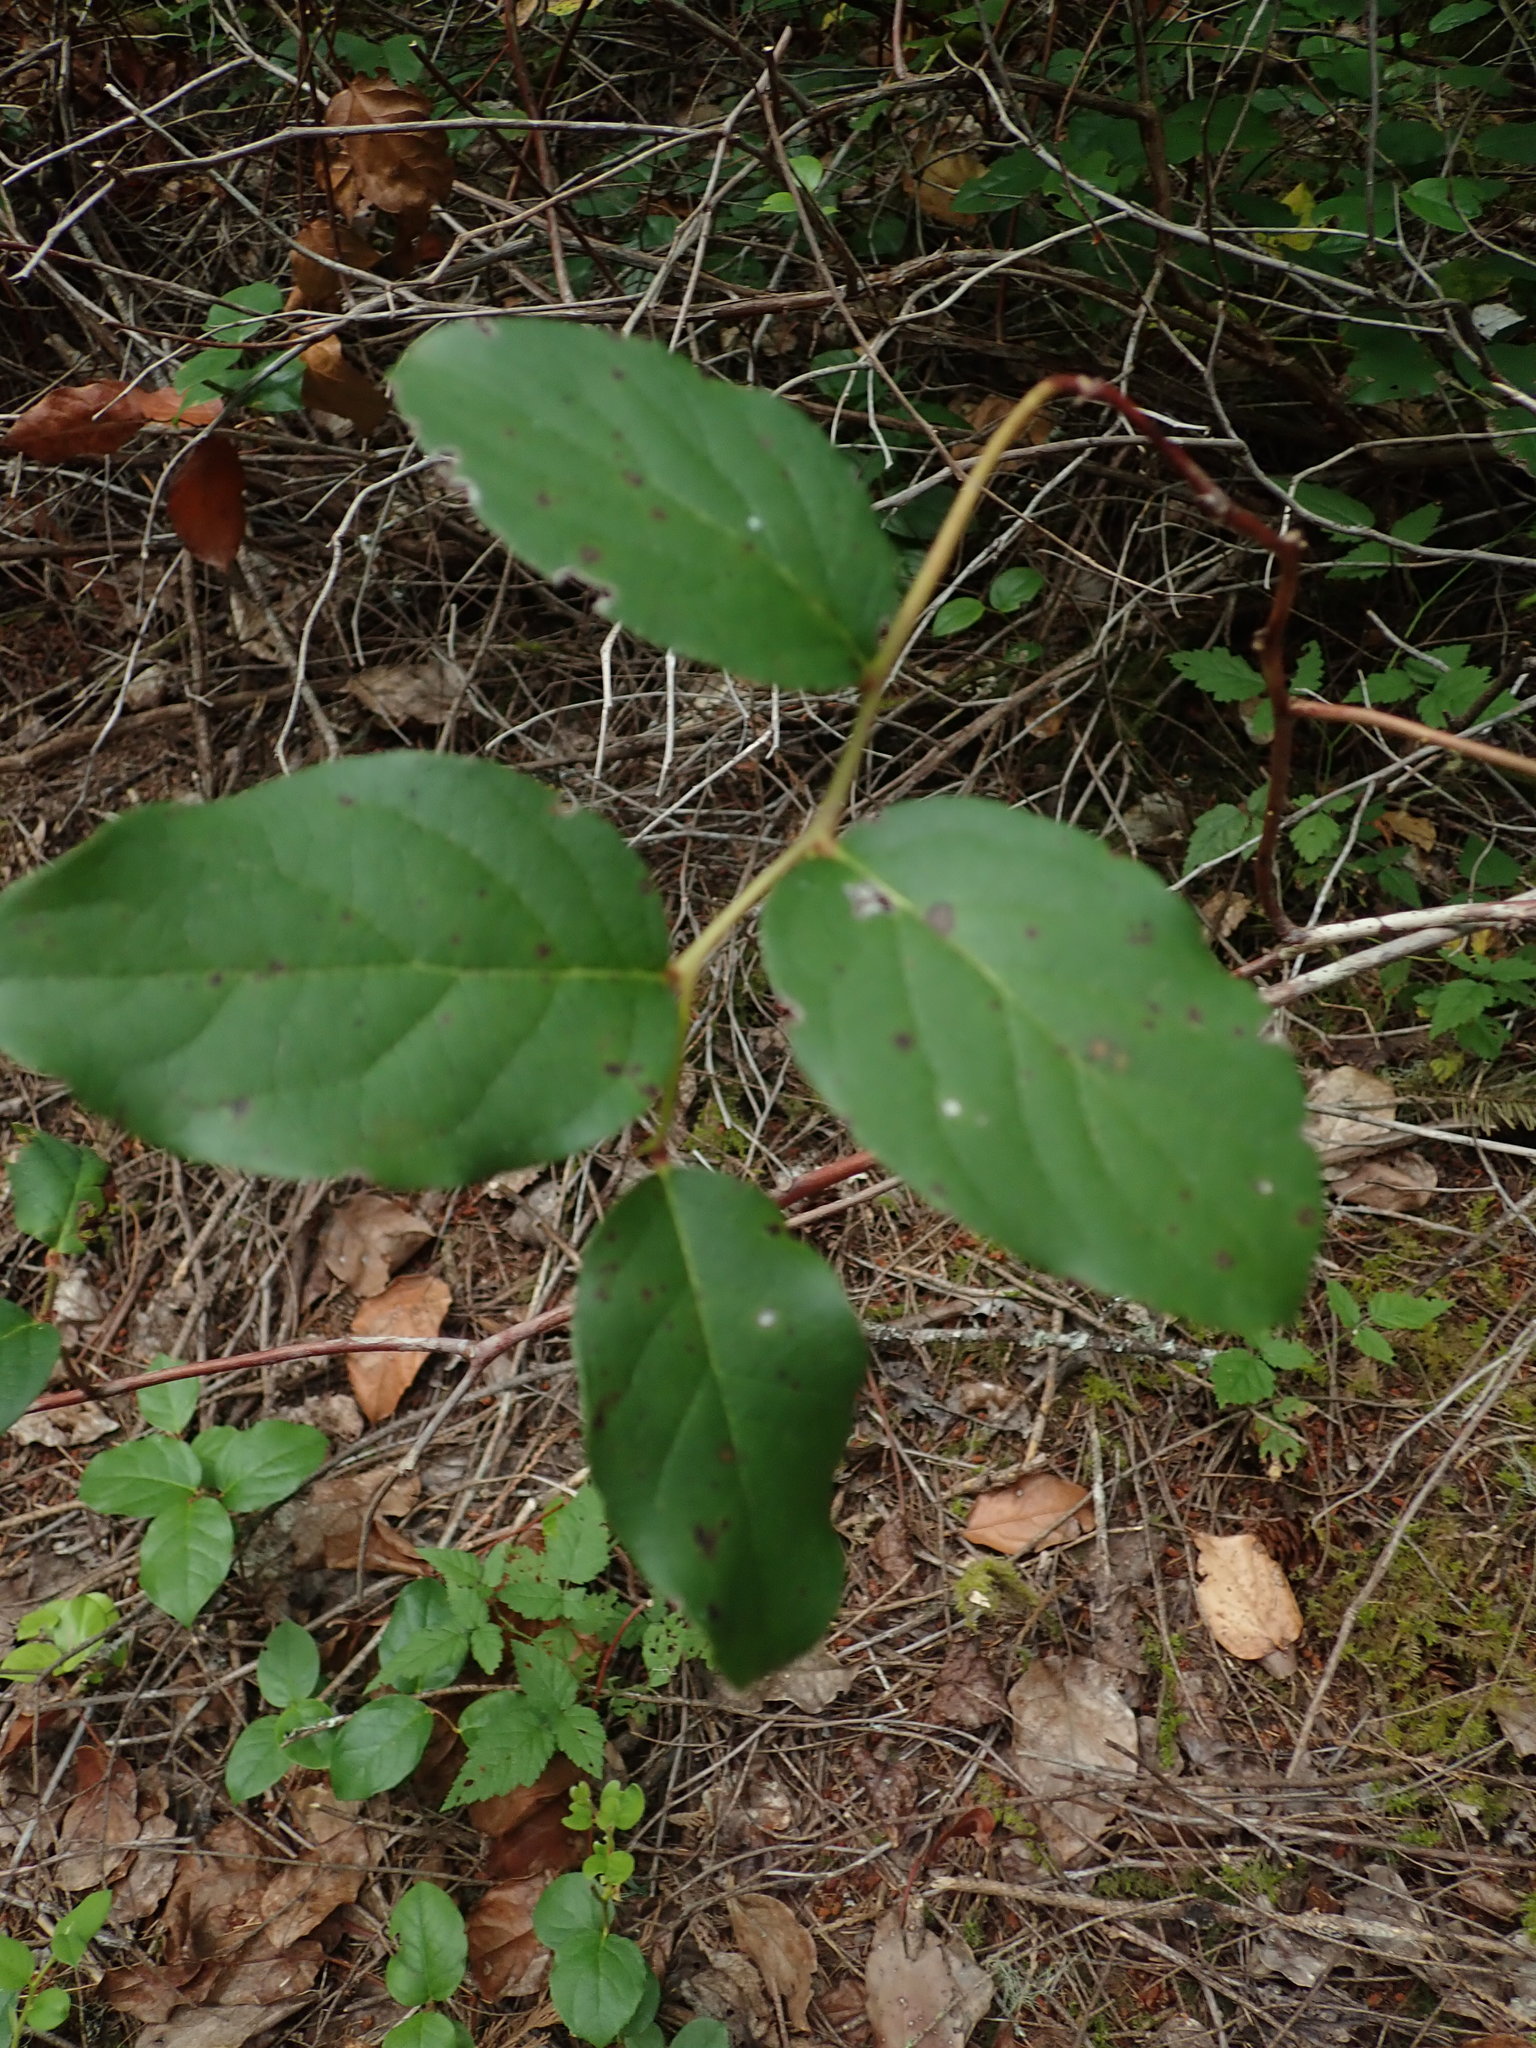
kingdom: Plantae
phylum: Tracheophyta
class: Magnoliopsida
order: Ericales
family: Ericaceae
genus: Gaultheria
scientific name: Gaultheria shallon
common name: Shallon
